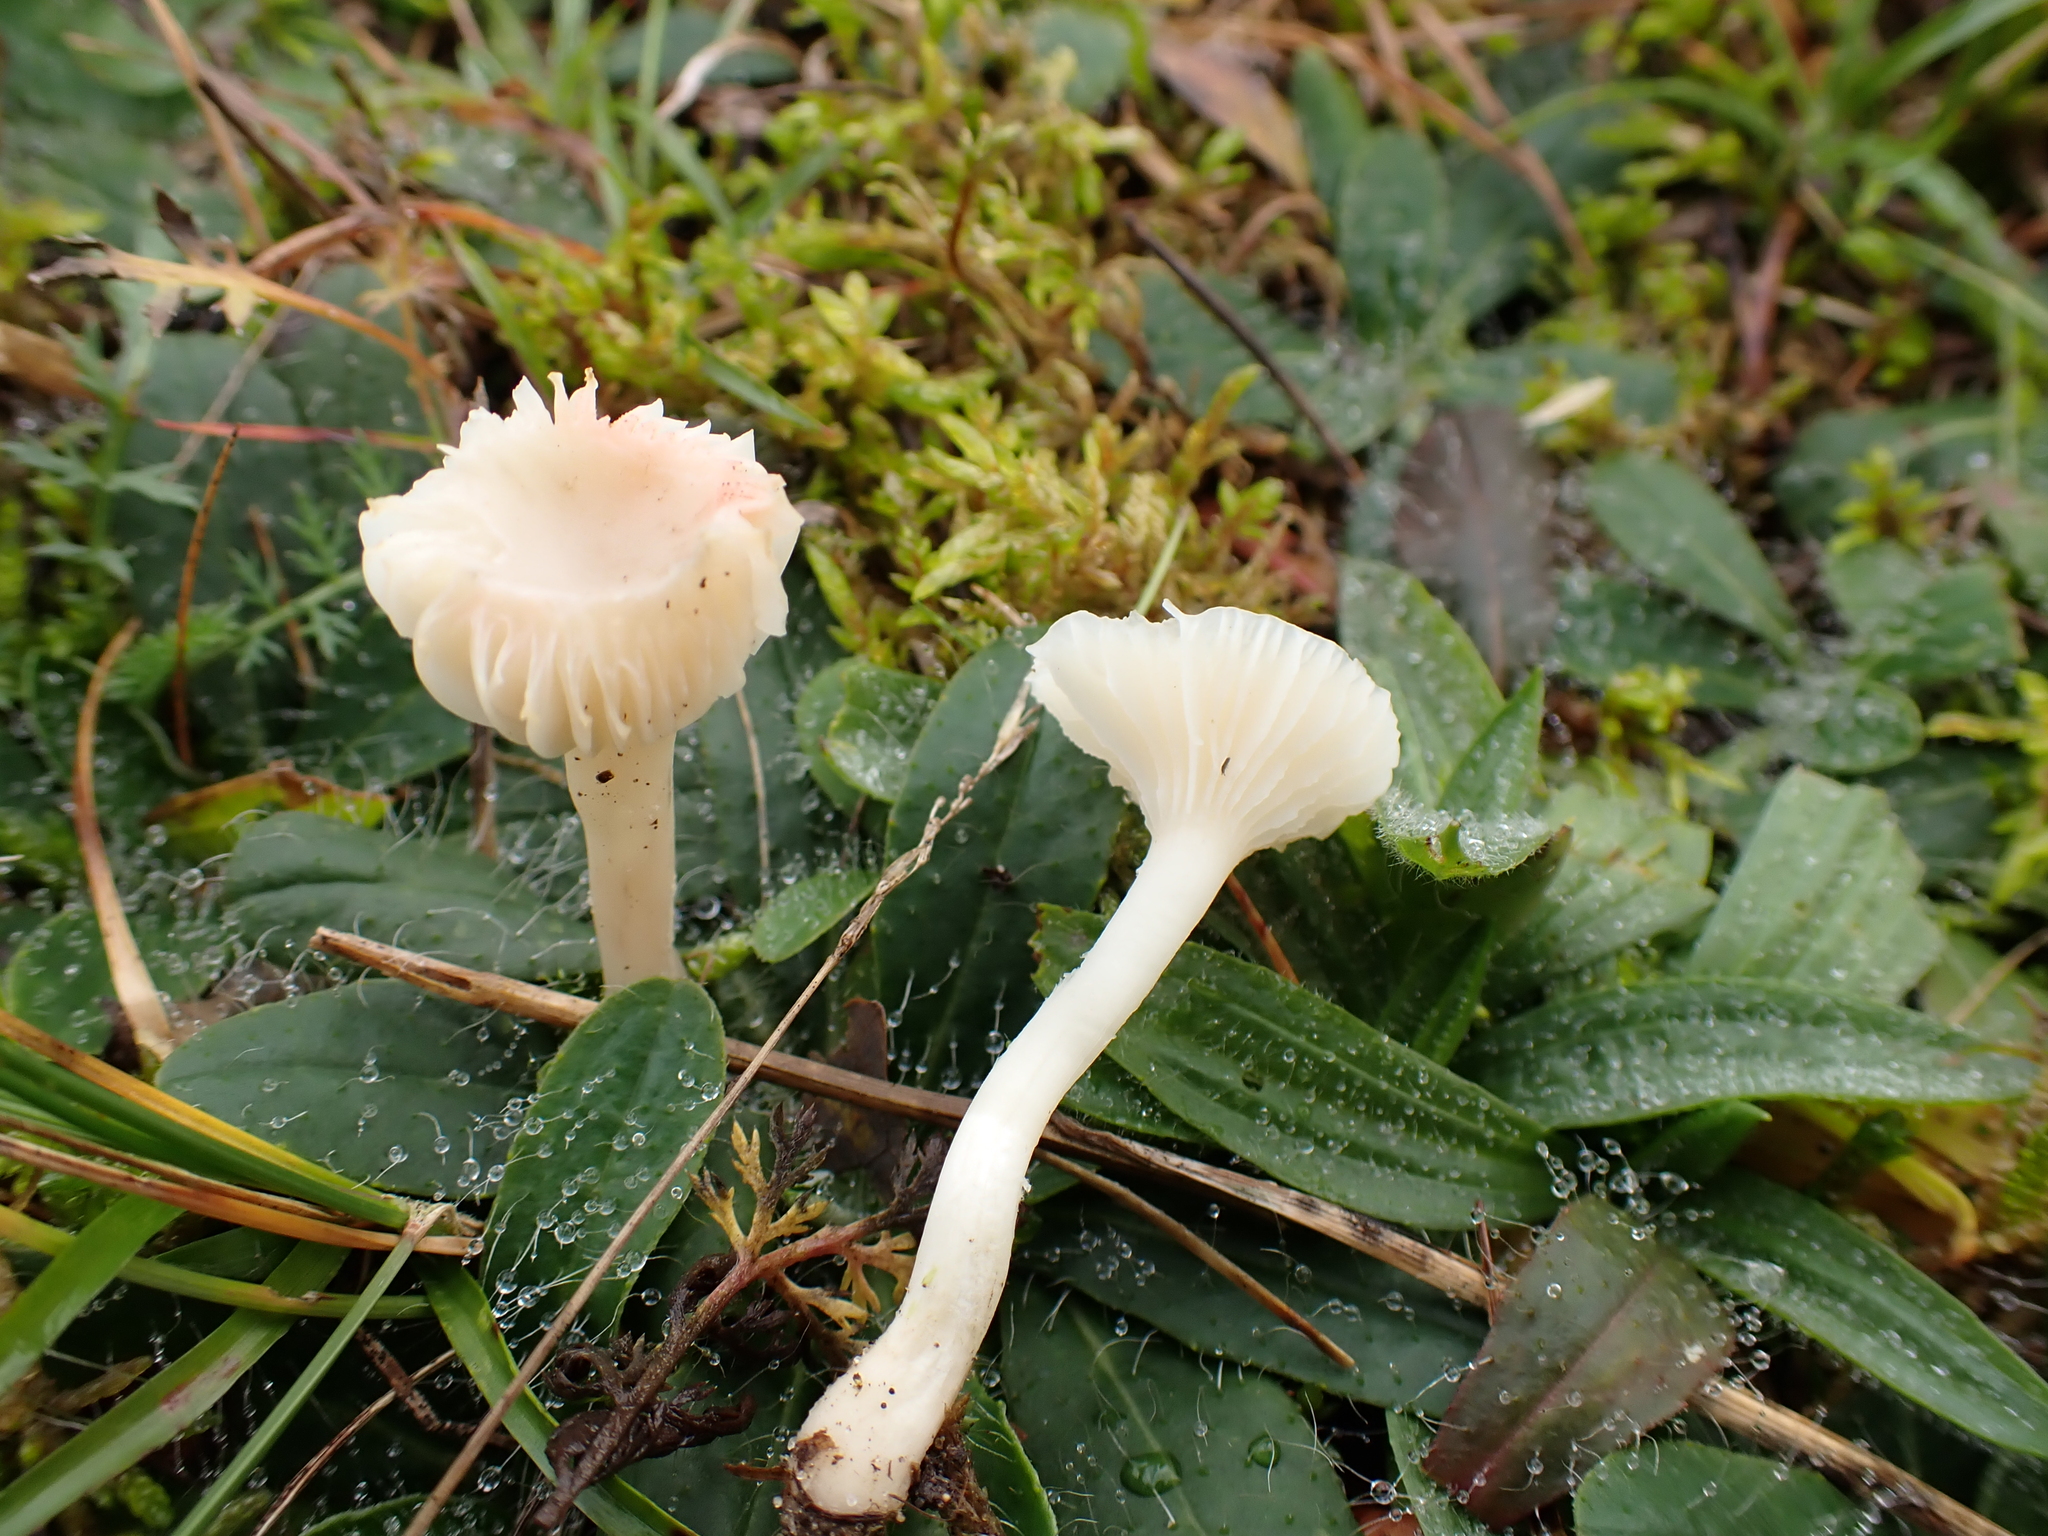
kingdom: Fungi
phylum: Basidiomycota
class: Agaricomycetes
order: Agaricales
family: Hygrophoraceae
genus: Cuphophyllus
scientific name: Cuphophyllus virgineus
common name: Snowy waxcap
